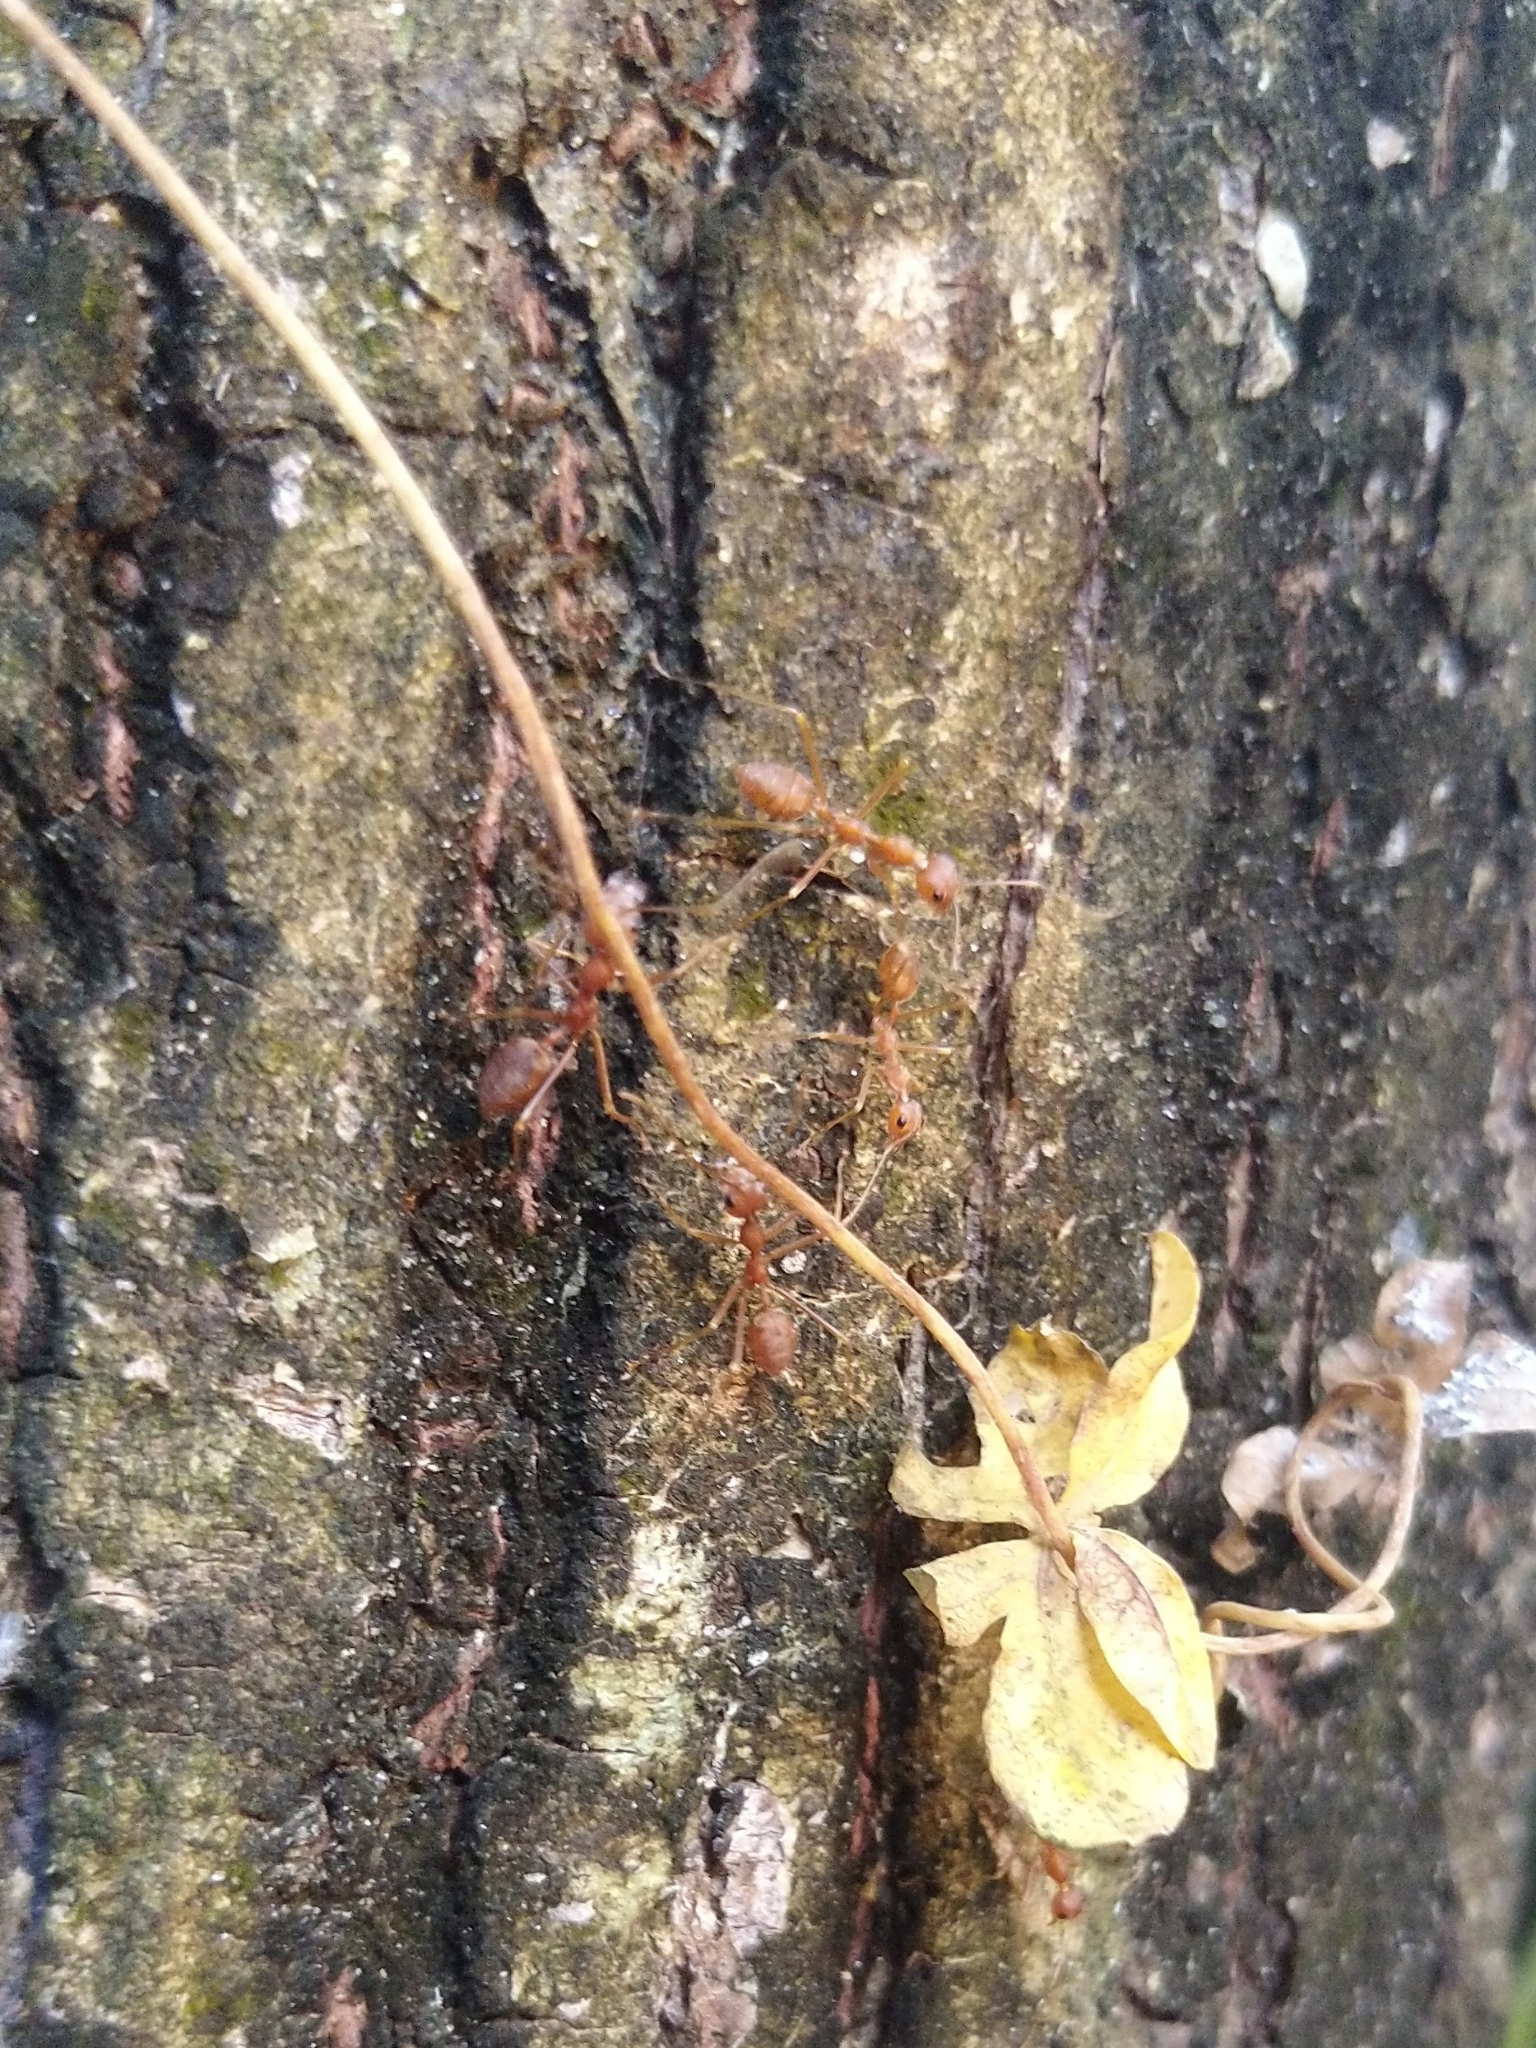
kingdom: Animalia
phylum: Arthropoda
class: Insecta
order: Hymenoptera
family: Formicidae
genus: Oecophylla
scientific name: Oecophylla smaragdina
